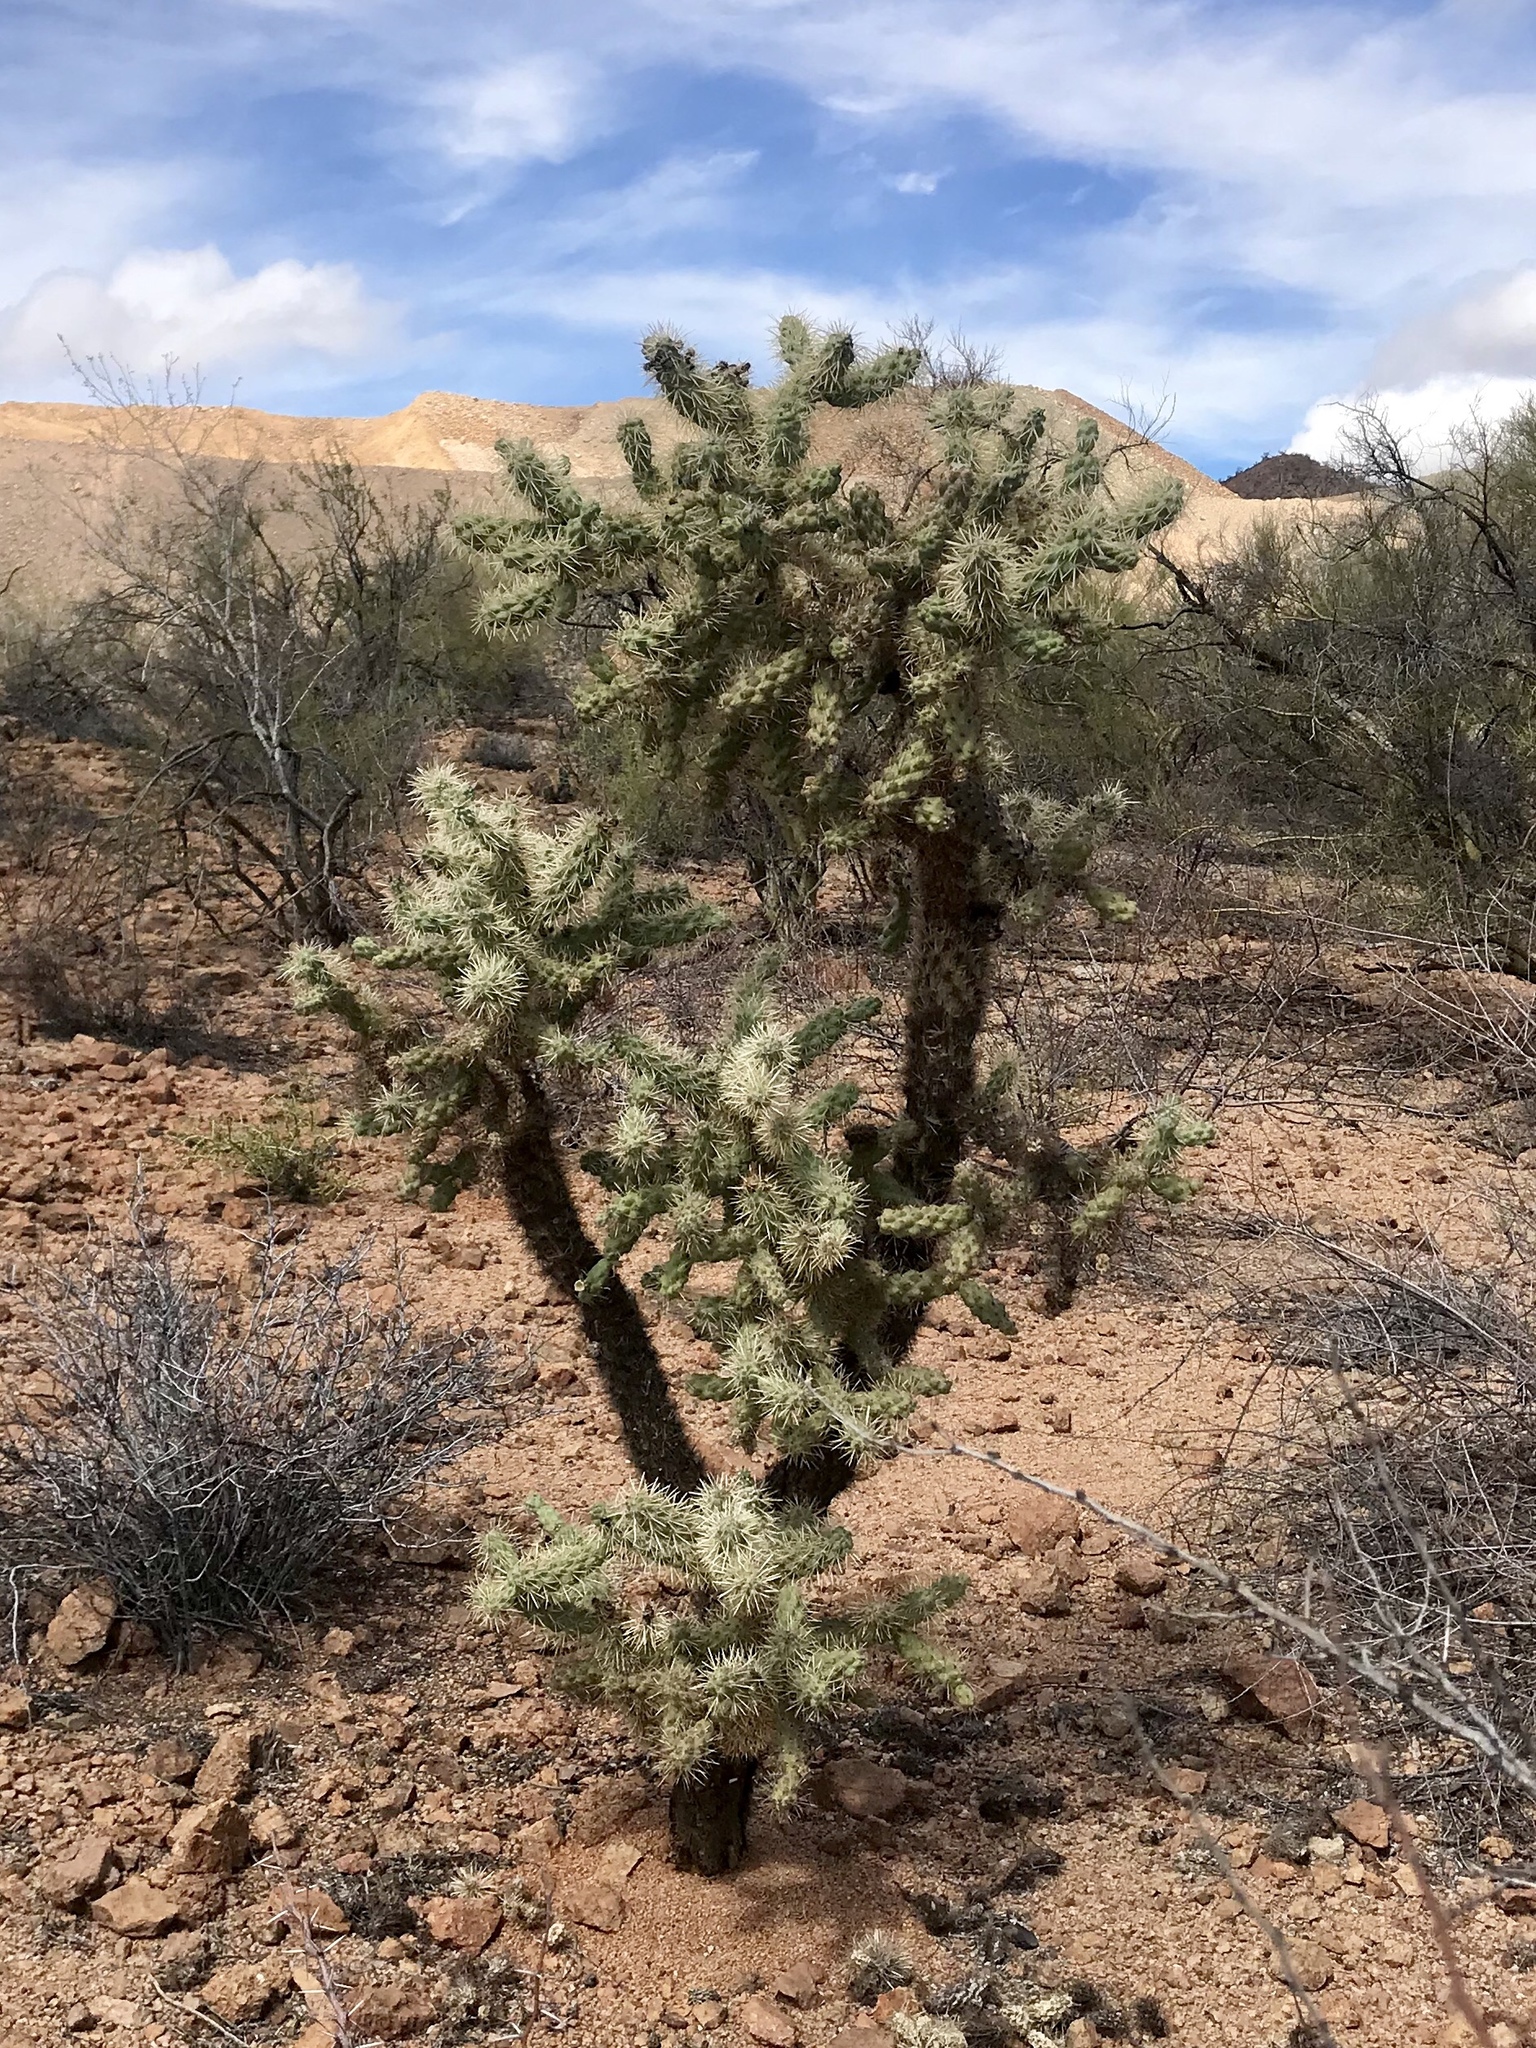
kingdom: Plantae
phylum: Tracheophyta
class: Magnoliopsida
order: Caryophyllales
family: Cactaceae
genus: Cylindropuntia
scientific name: Cylindropuntia fulgida
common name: Jumping cholla
